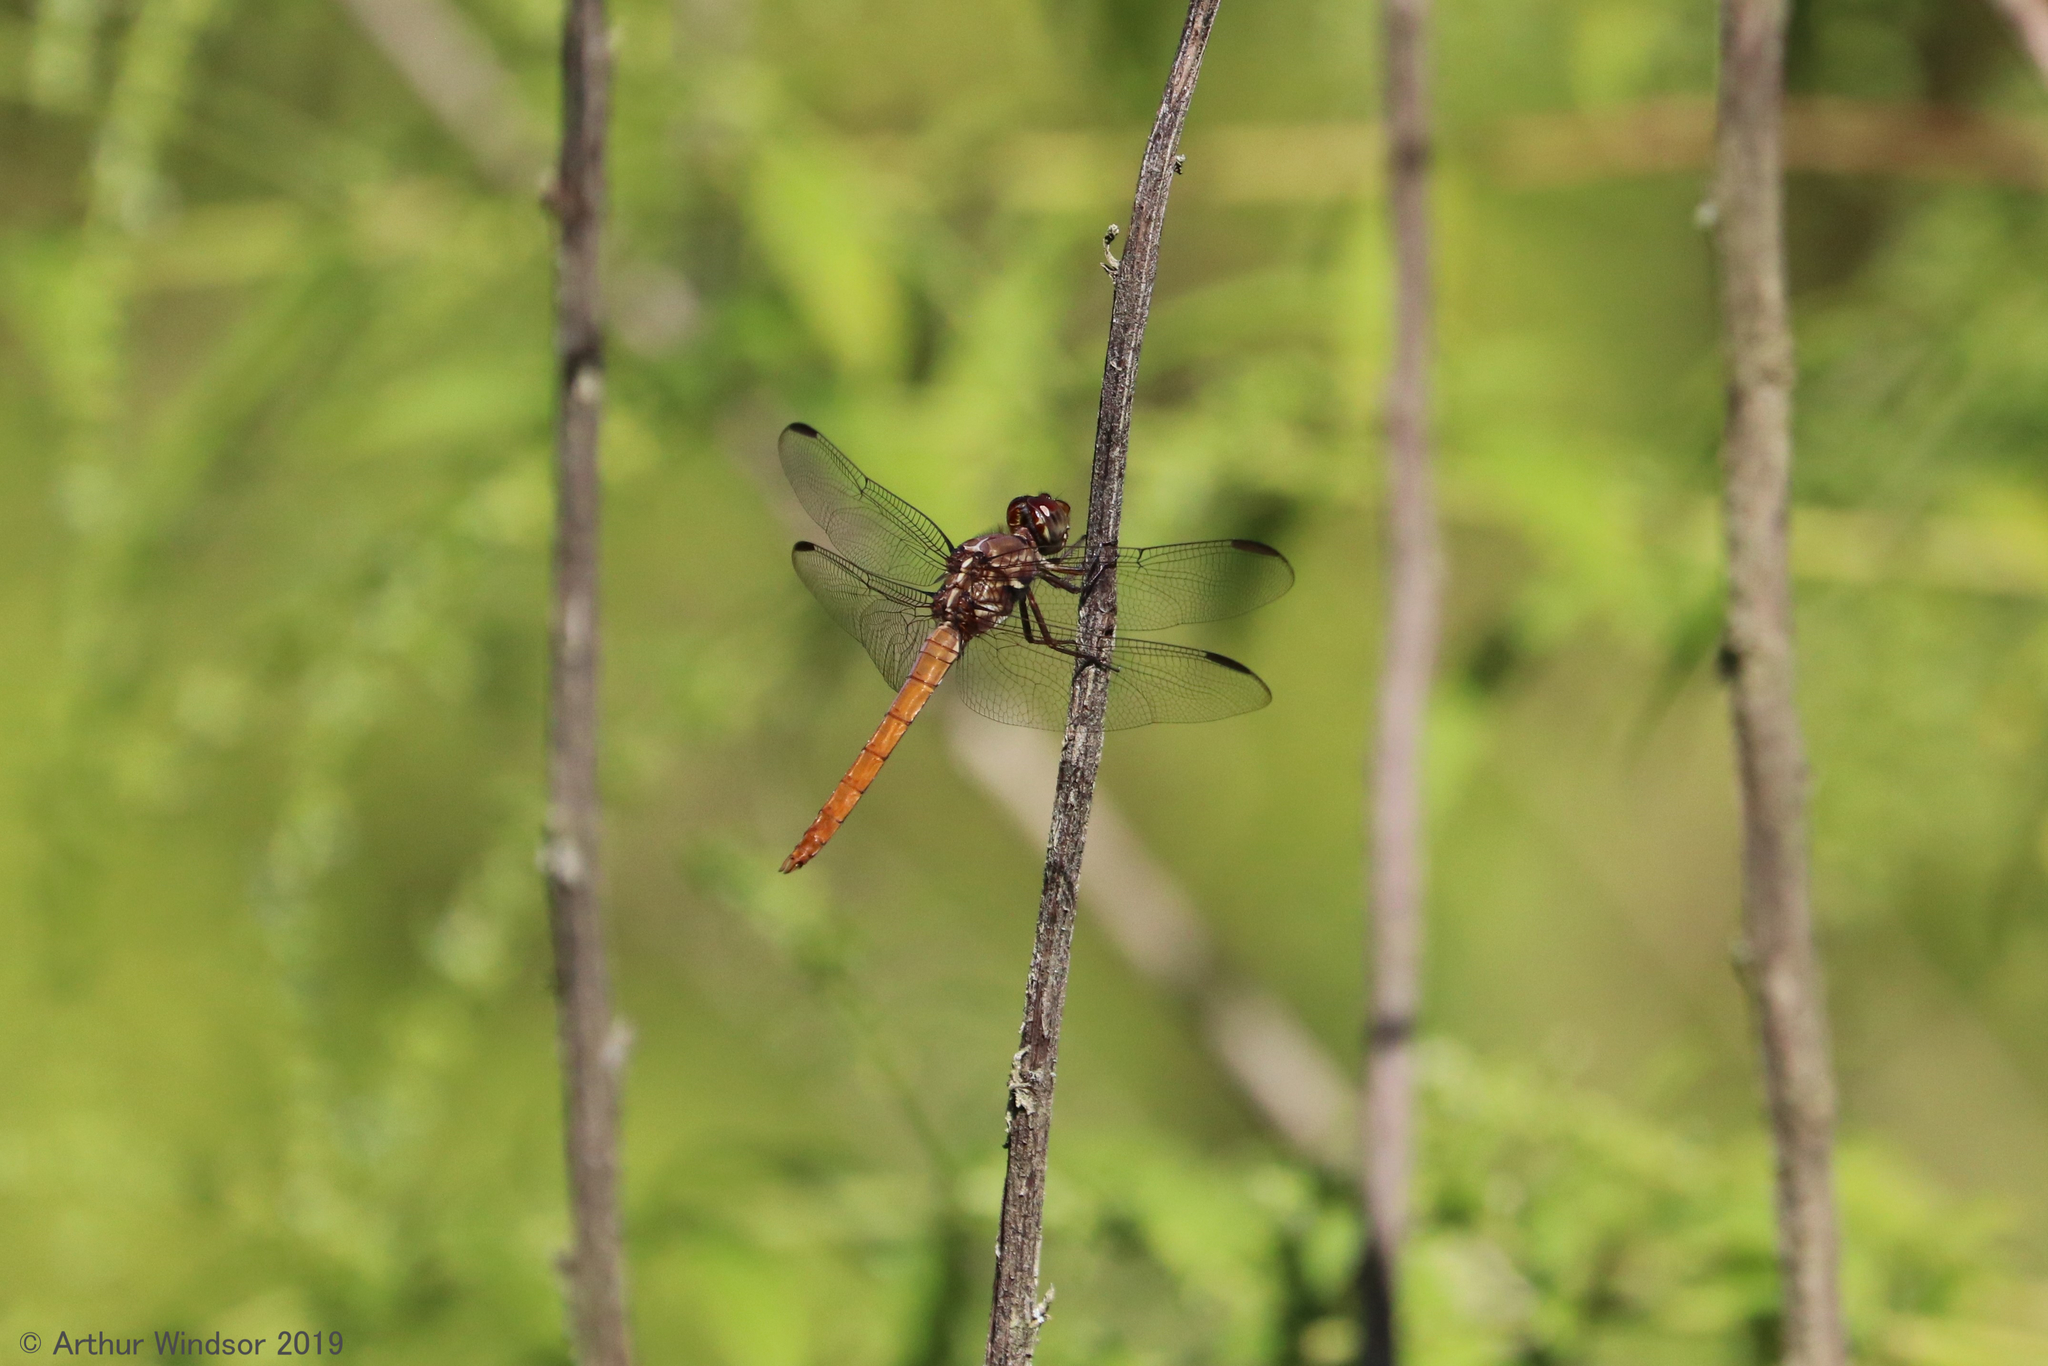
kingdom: Animalia
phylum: Arthropoda
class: Insecta
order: Odonata
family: Libellulidae
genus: Orthemis
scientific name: Orthemis ferruginea
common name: Roseate skimmer
